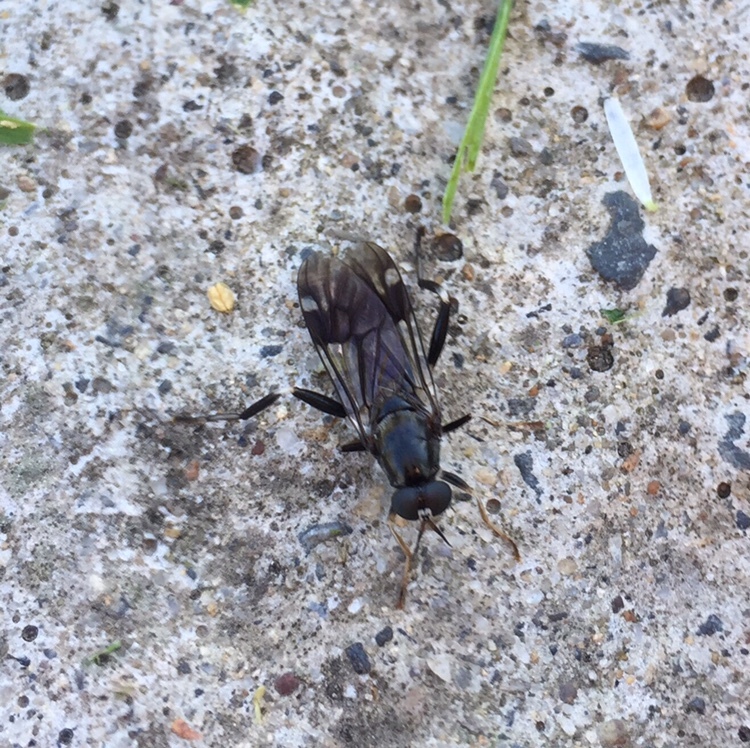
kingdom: Animalia
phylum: Arthropoda
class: Insecta
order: Diptera
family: Stratiomyidae
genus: Exaireta
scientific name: Exaireta spinigera
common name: Blue soldier fly
